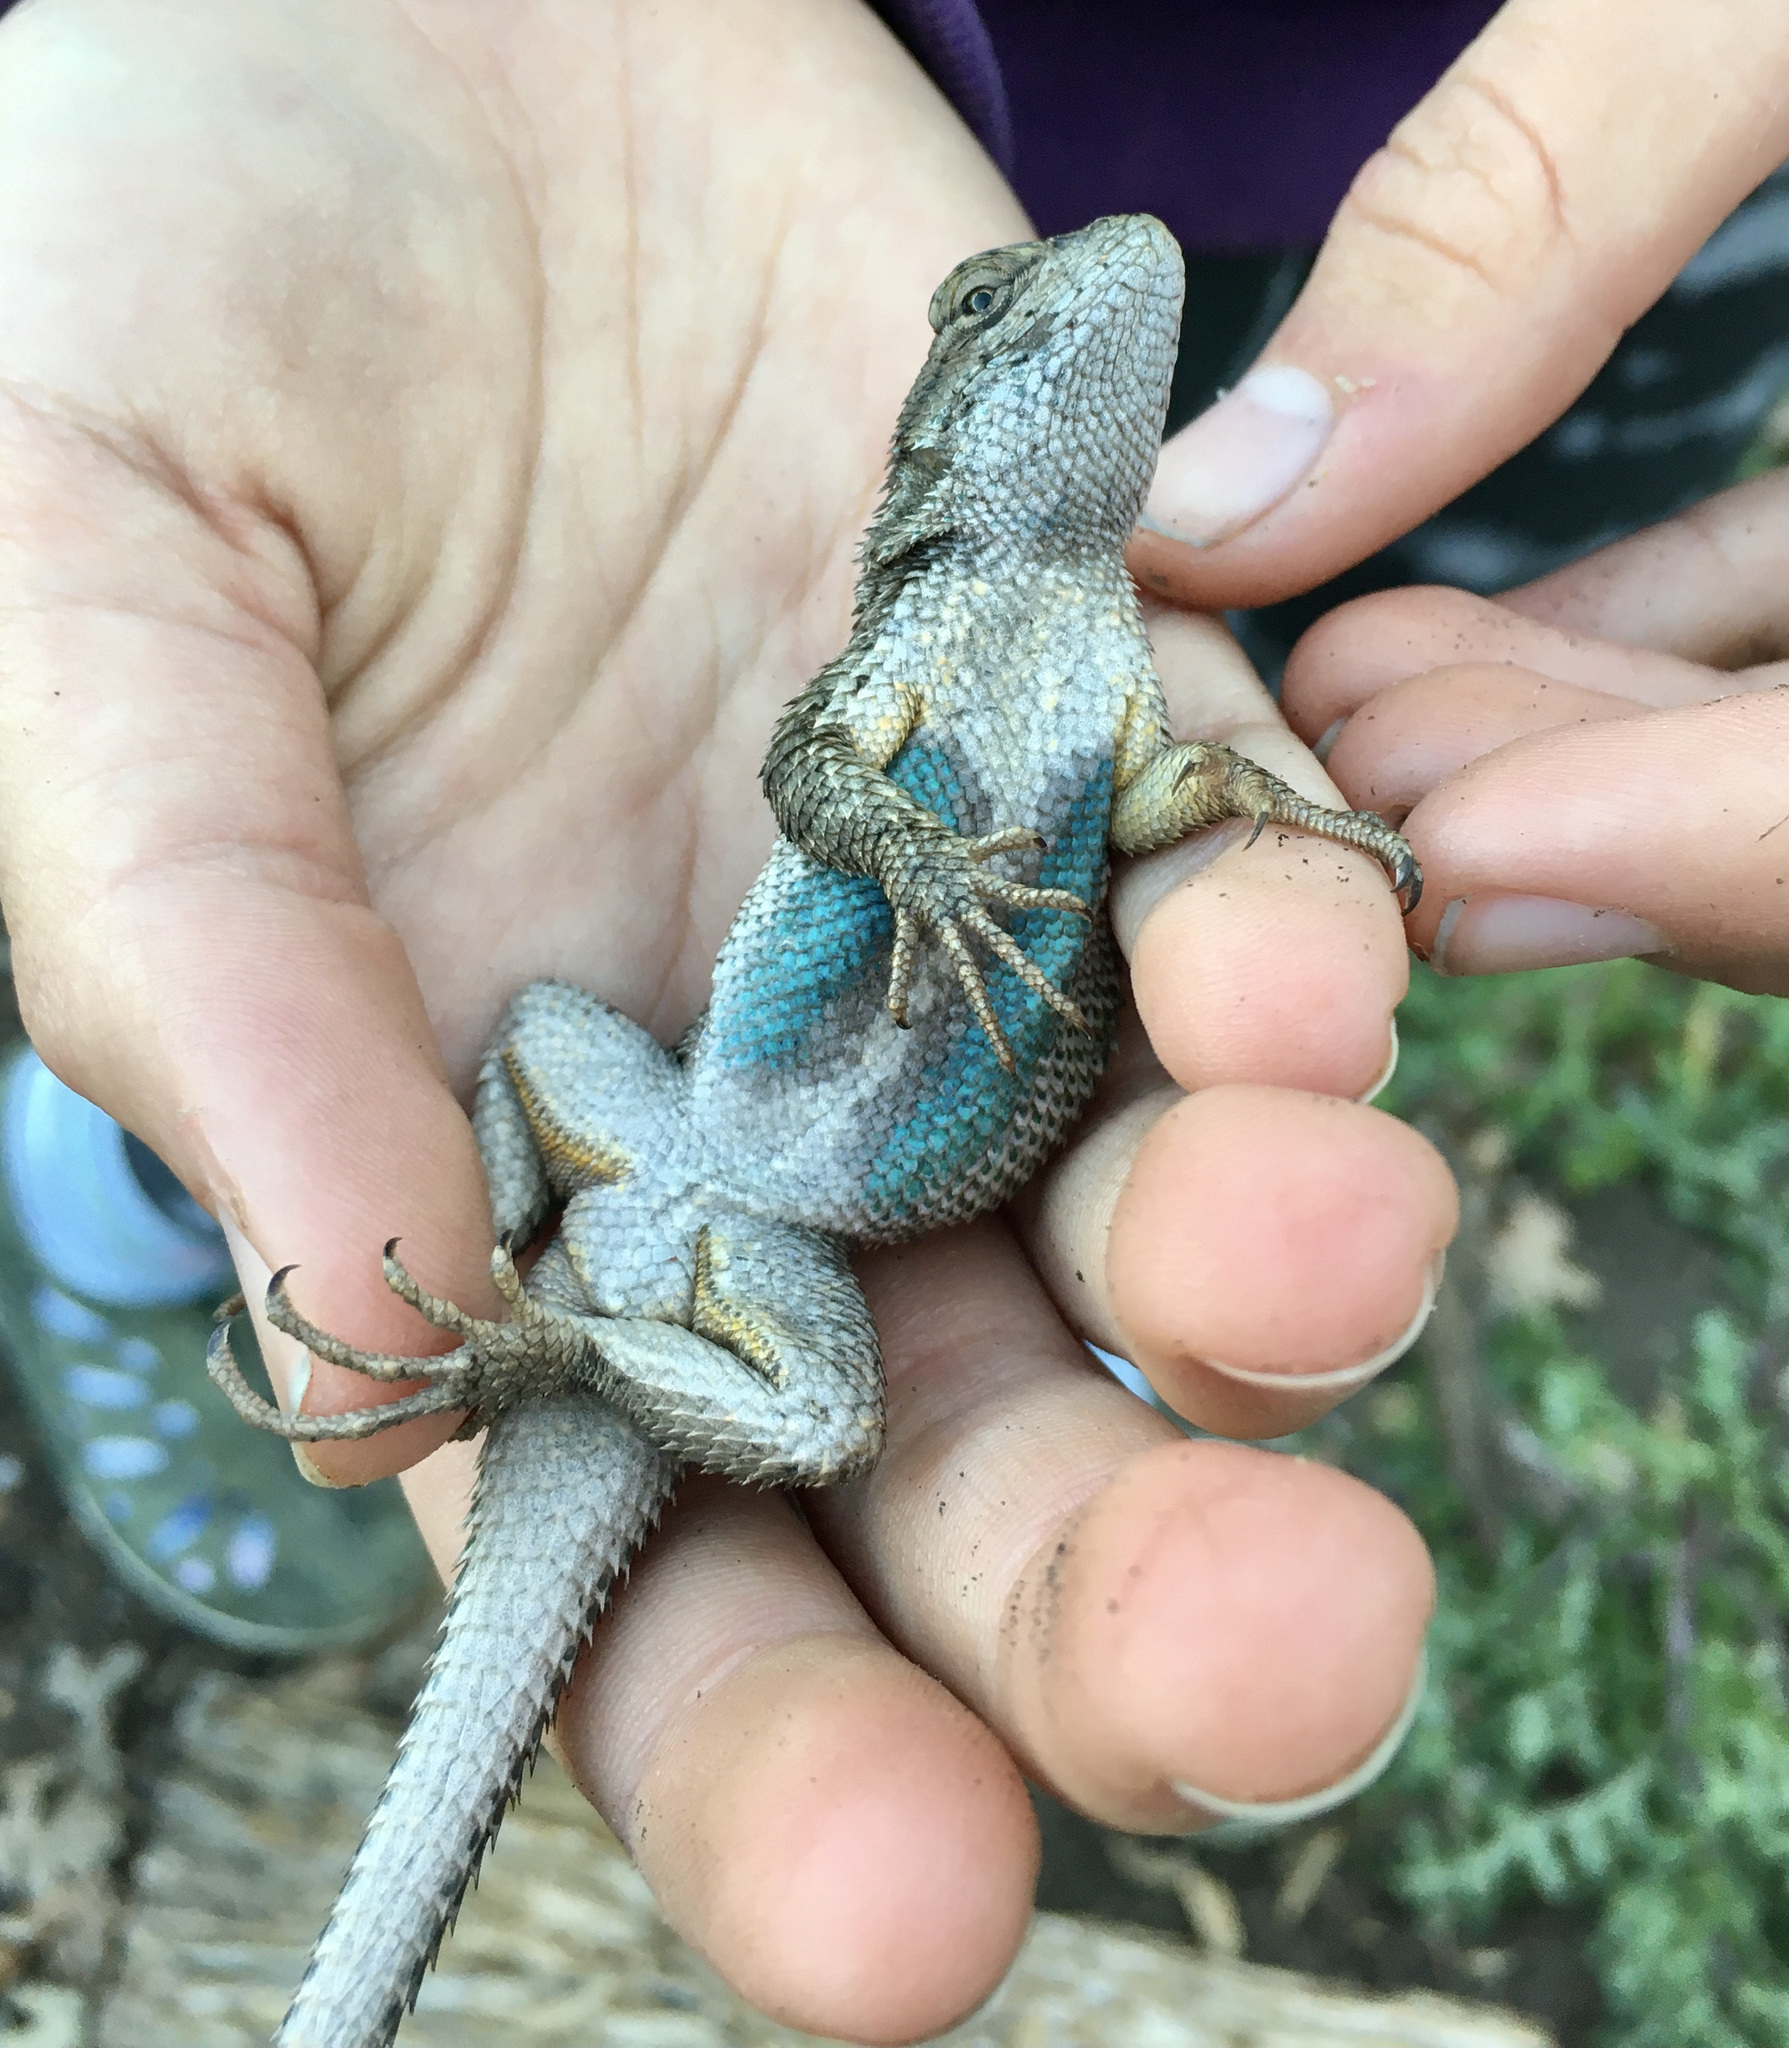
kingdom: Animalia
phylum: Chordata
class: Squamata
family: Phrynosomatidae
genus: Sceloporus
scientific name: Sceloporus occidentalis
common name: Western fence lizard
